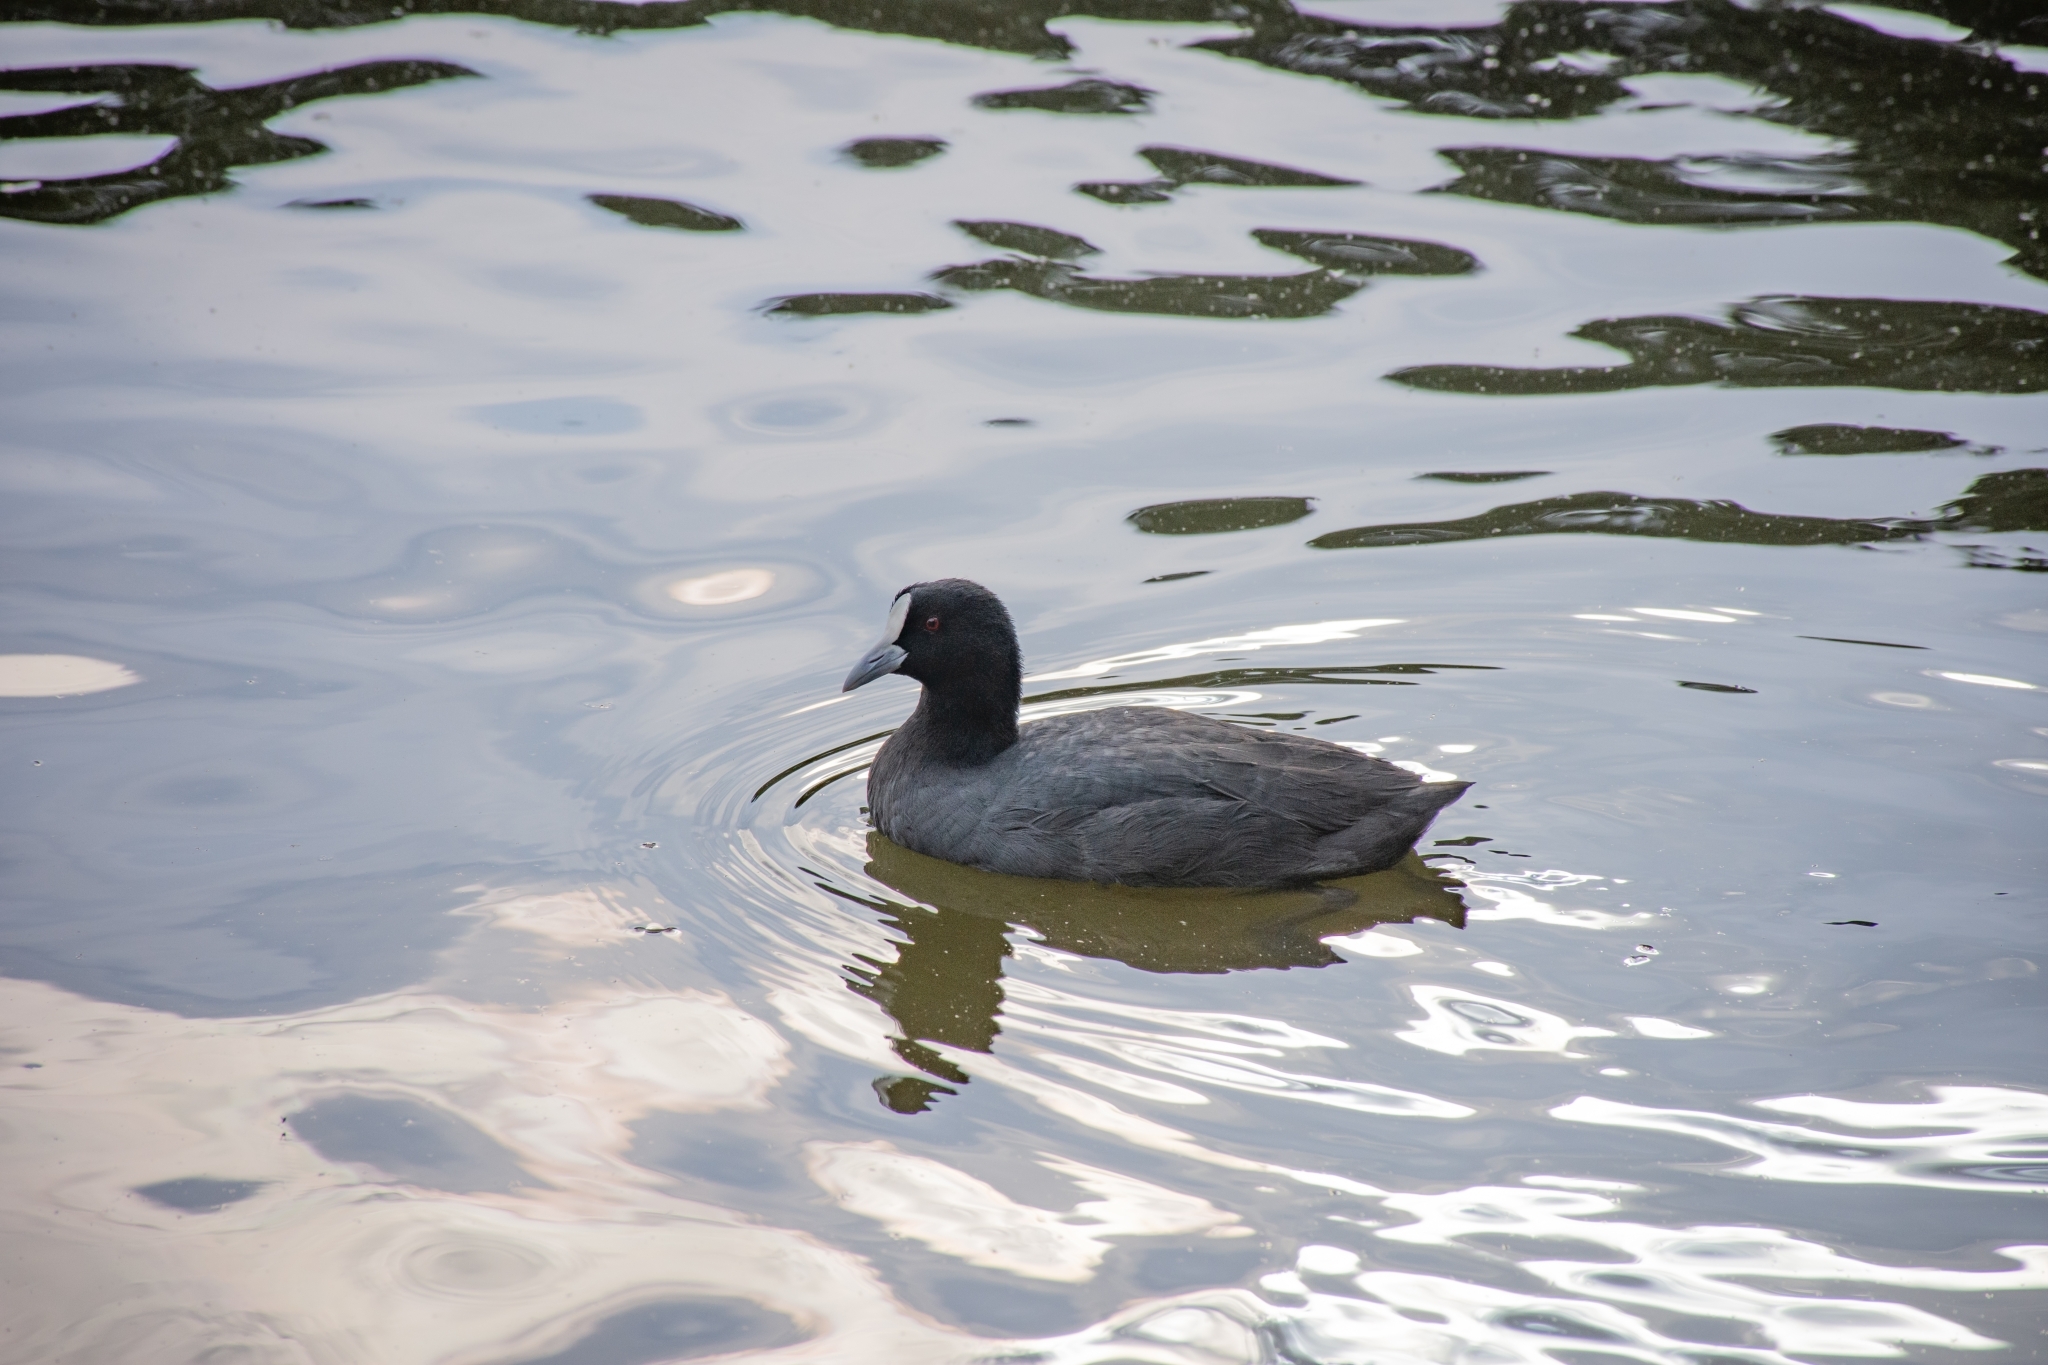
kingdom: Animalia
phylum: Chordata
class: Aves
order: Gruiformes
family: Rallidae
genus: Fulica
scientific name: Fulica atra
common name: Eurasian coot
